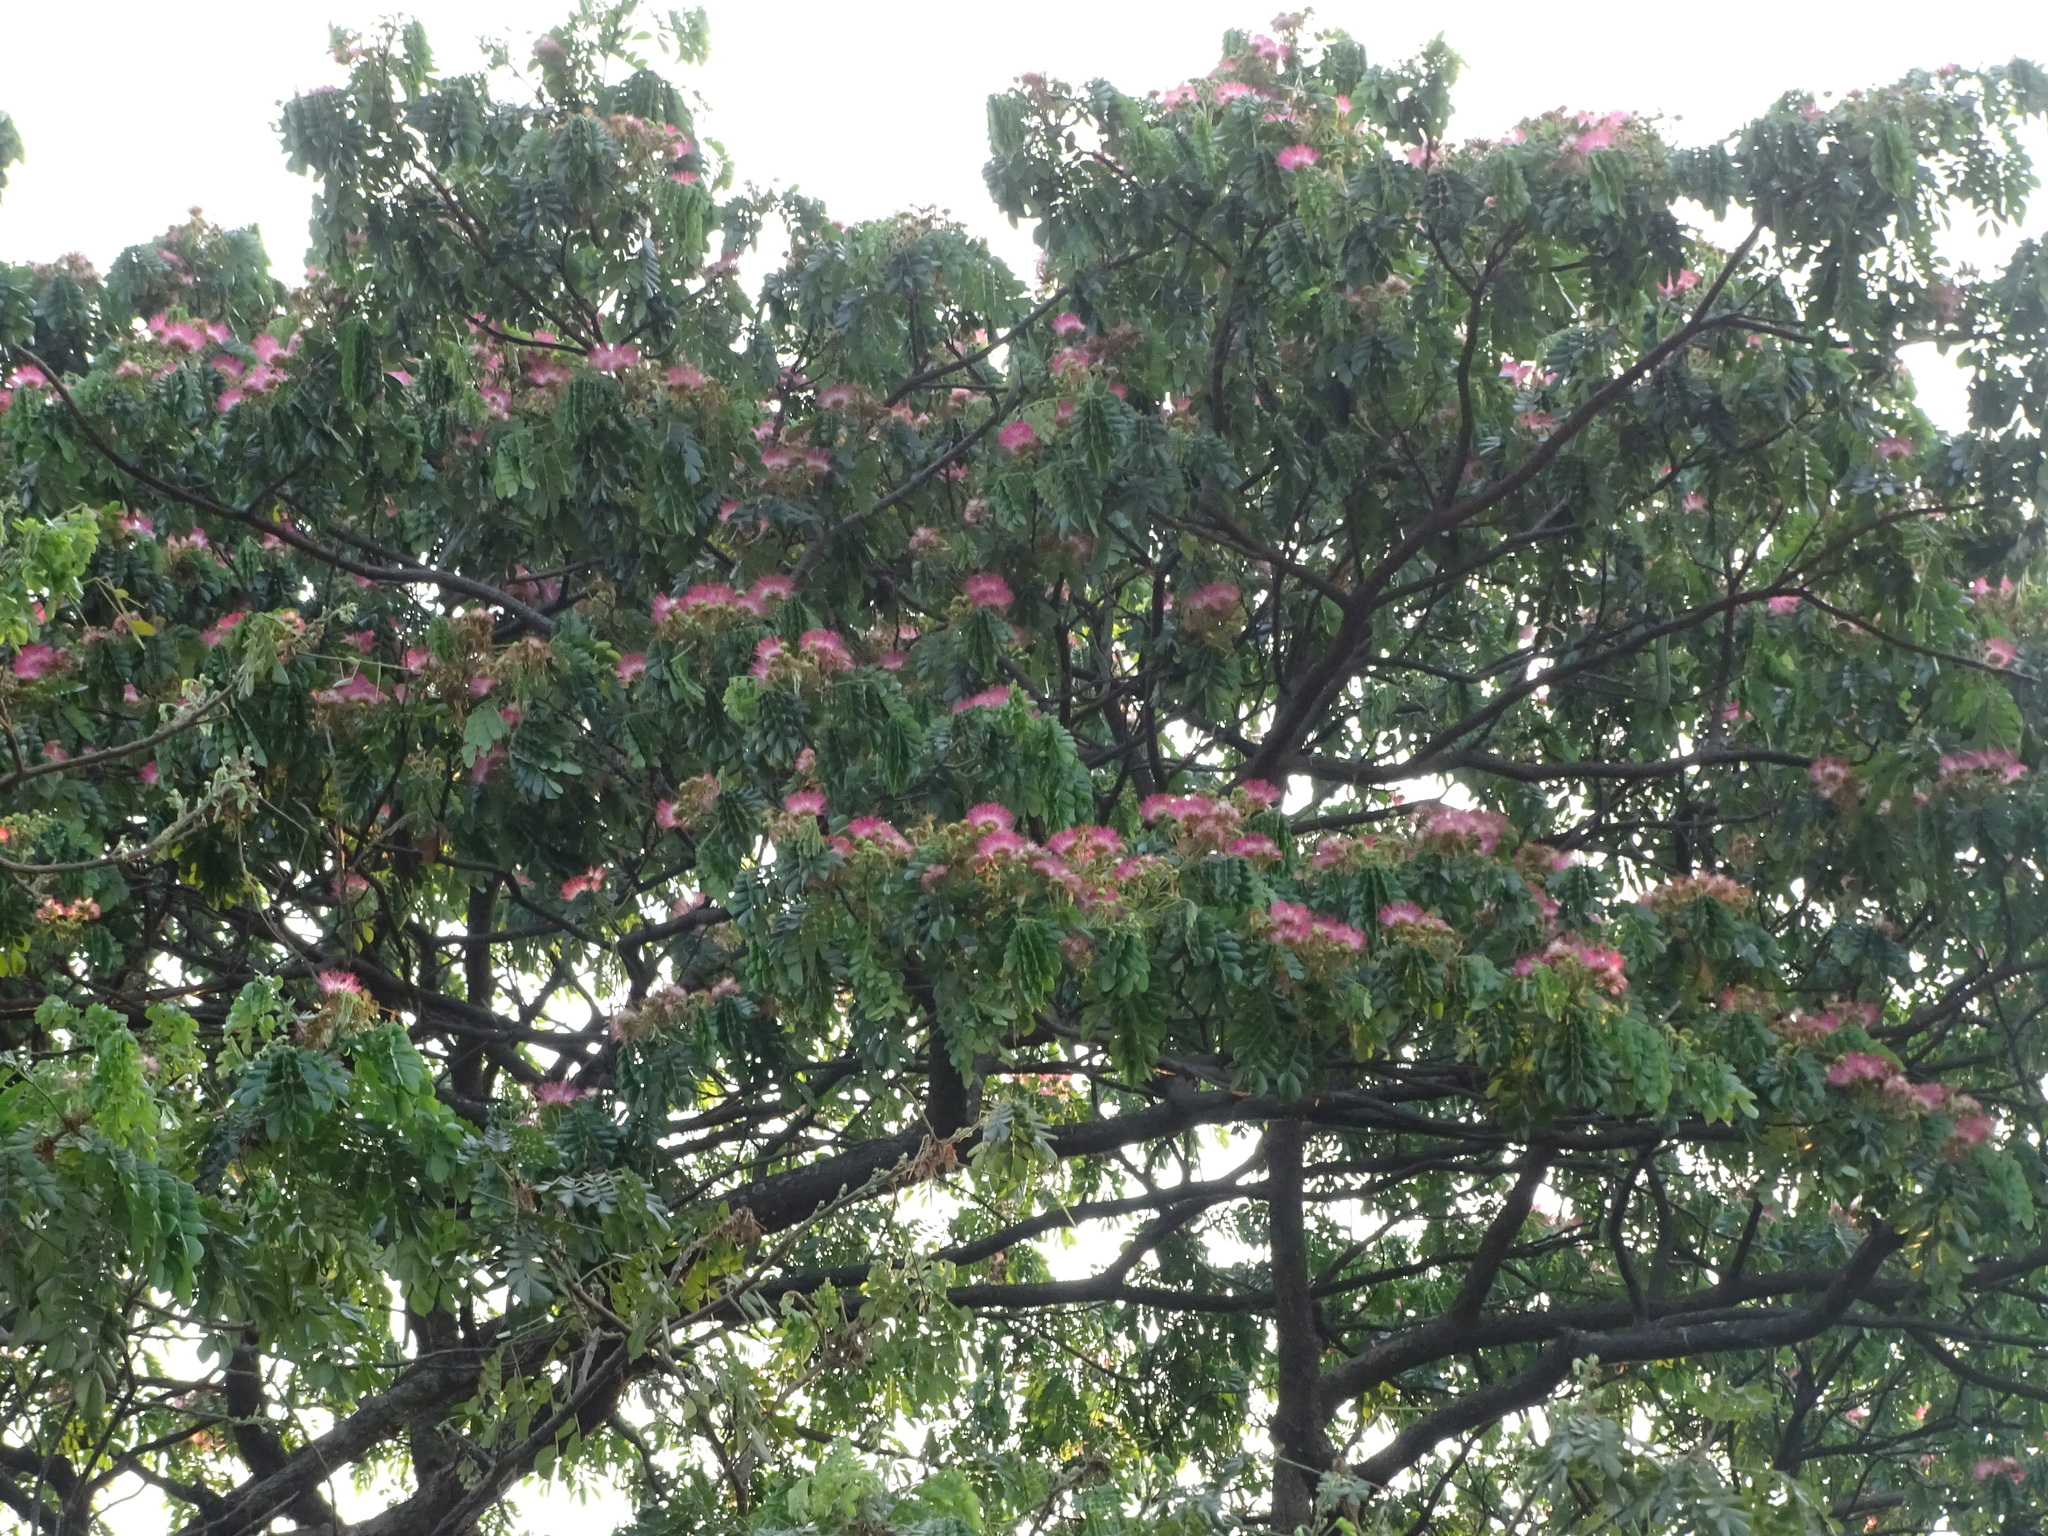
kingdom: Plantae
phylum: Tracheophyta
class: Magnoliopsida
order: Fabales
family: Fabaceae
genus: Samanea
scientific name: Samanea saman
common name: Raintree
